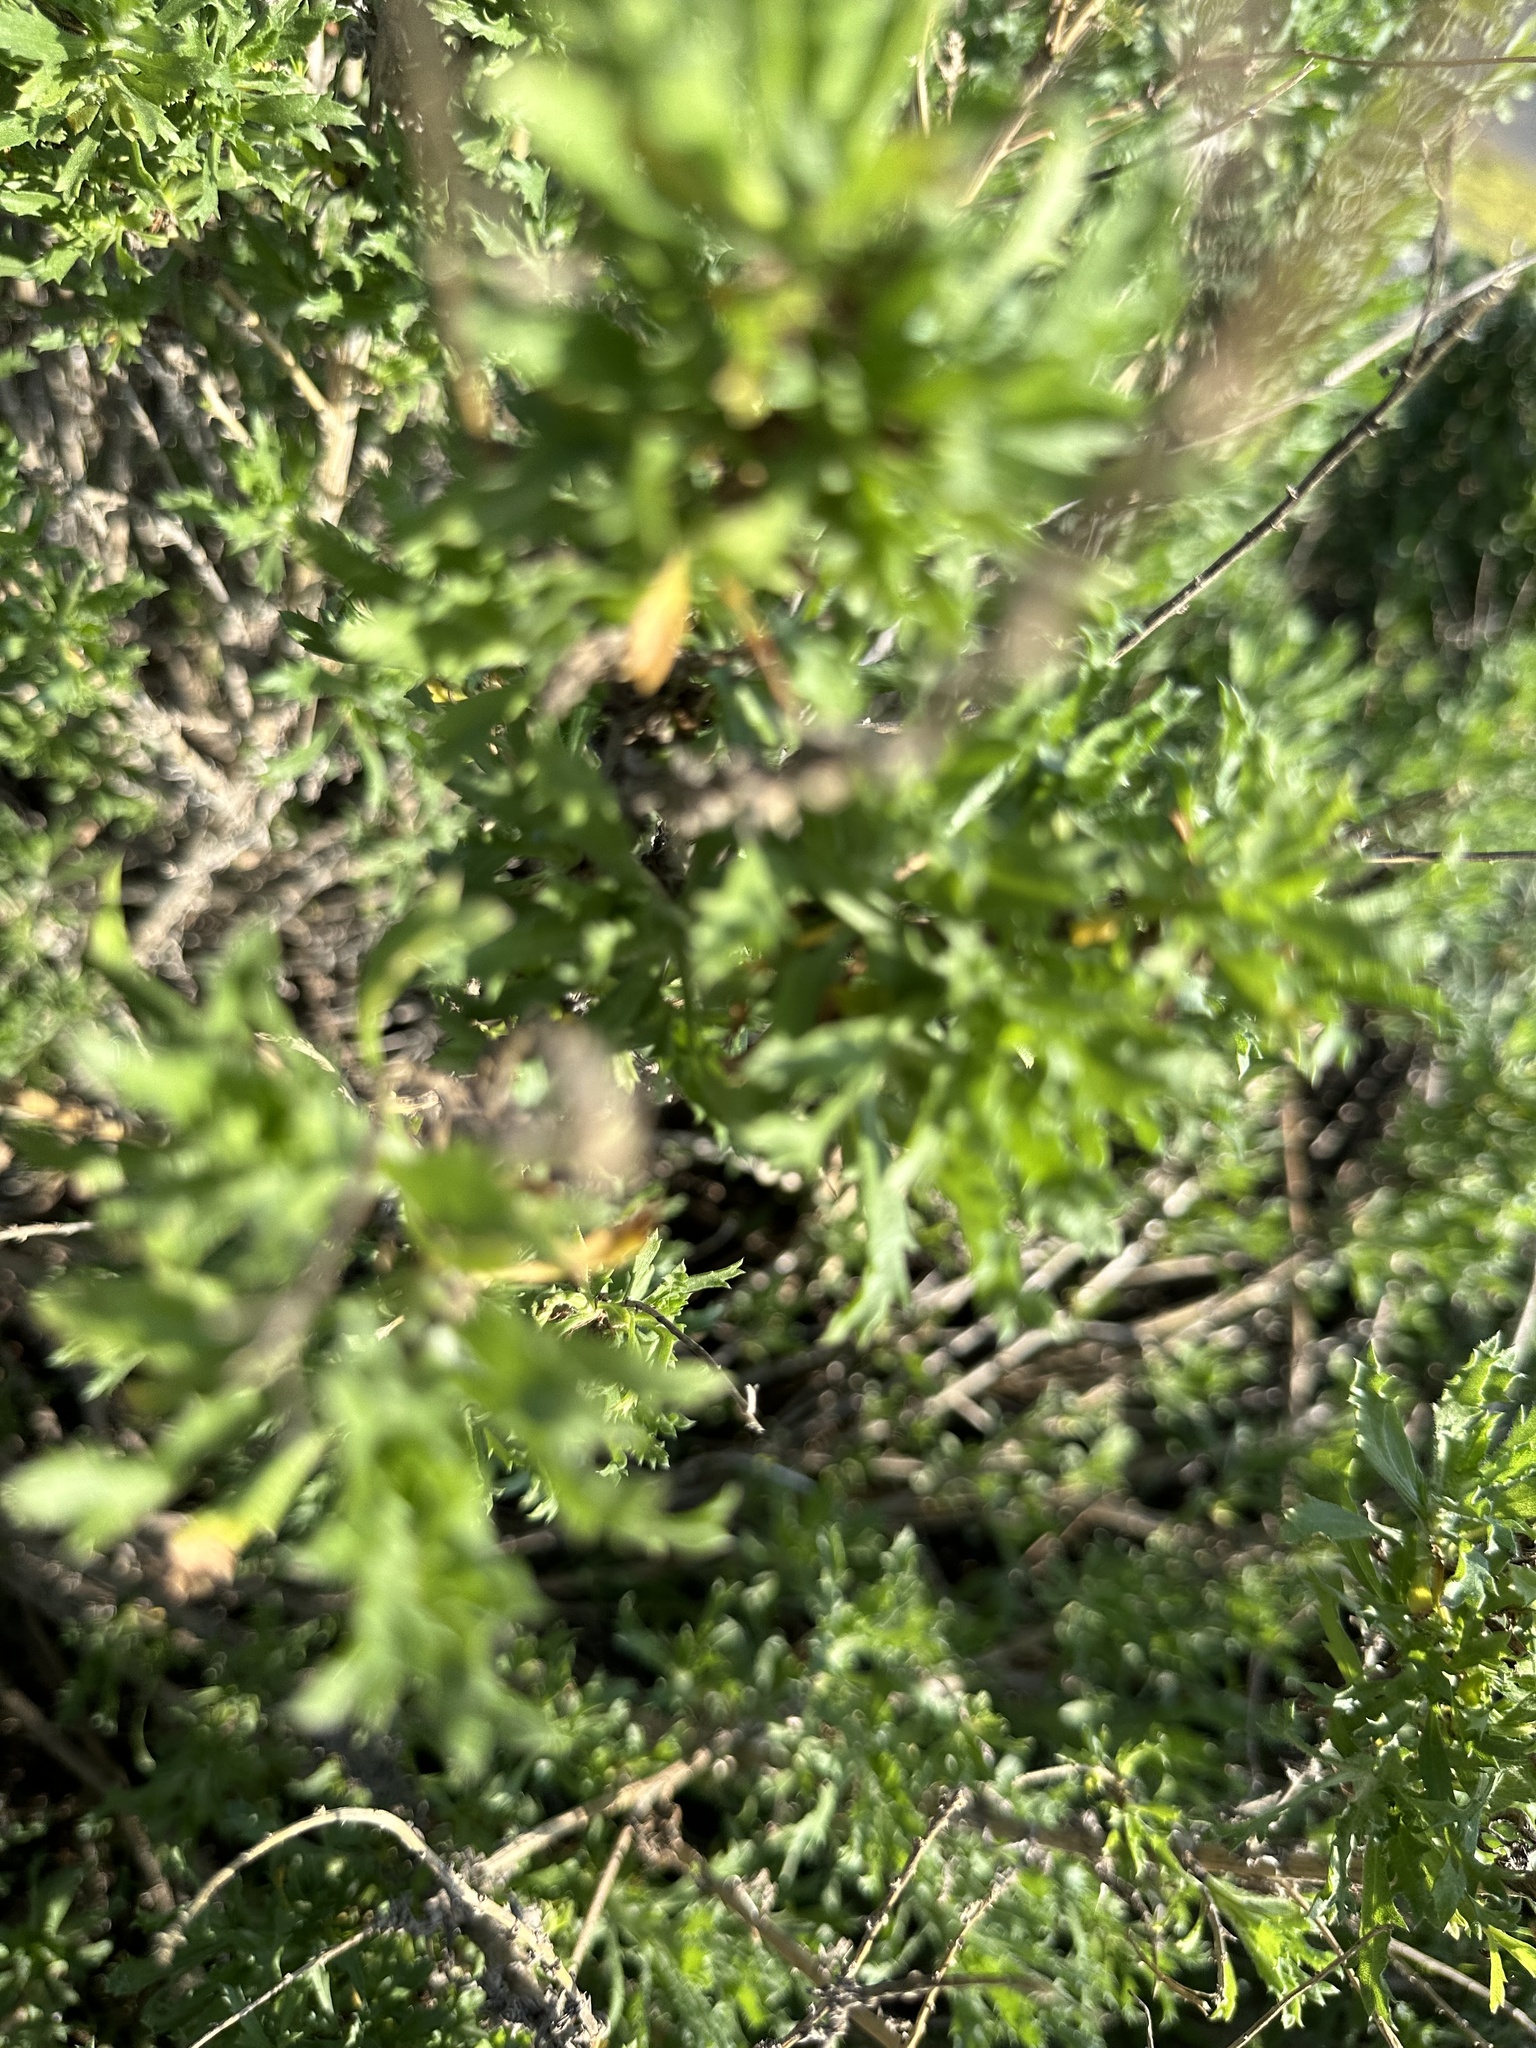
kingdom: Plantae
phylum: Tracheophyta
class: Magnoliopsida
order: Asterales
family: Asteraceae
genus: Sonchus
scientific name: Sonchus oleraceus
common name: Common sowthistle
